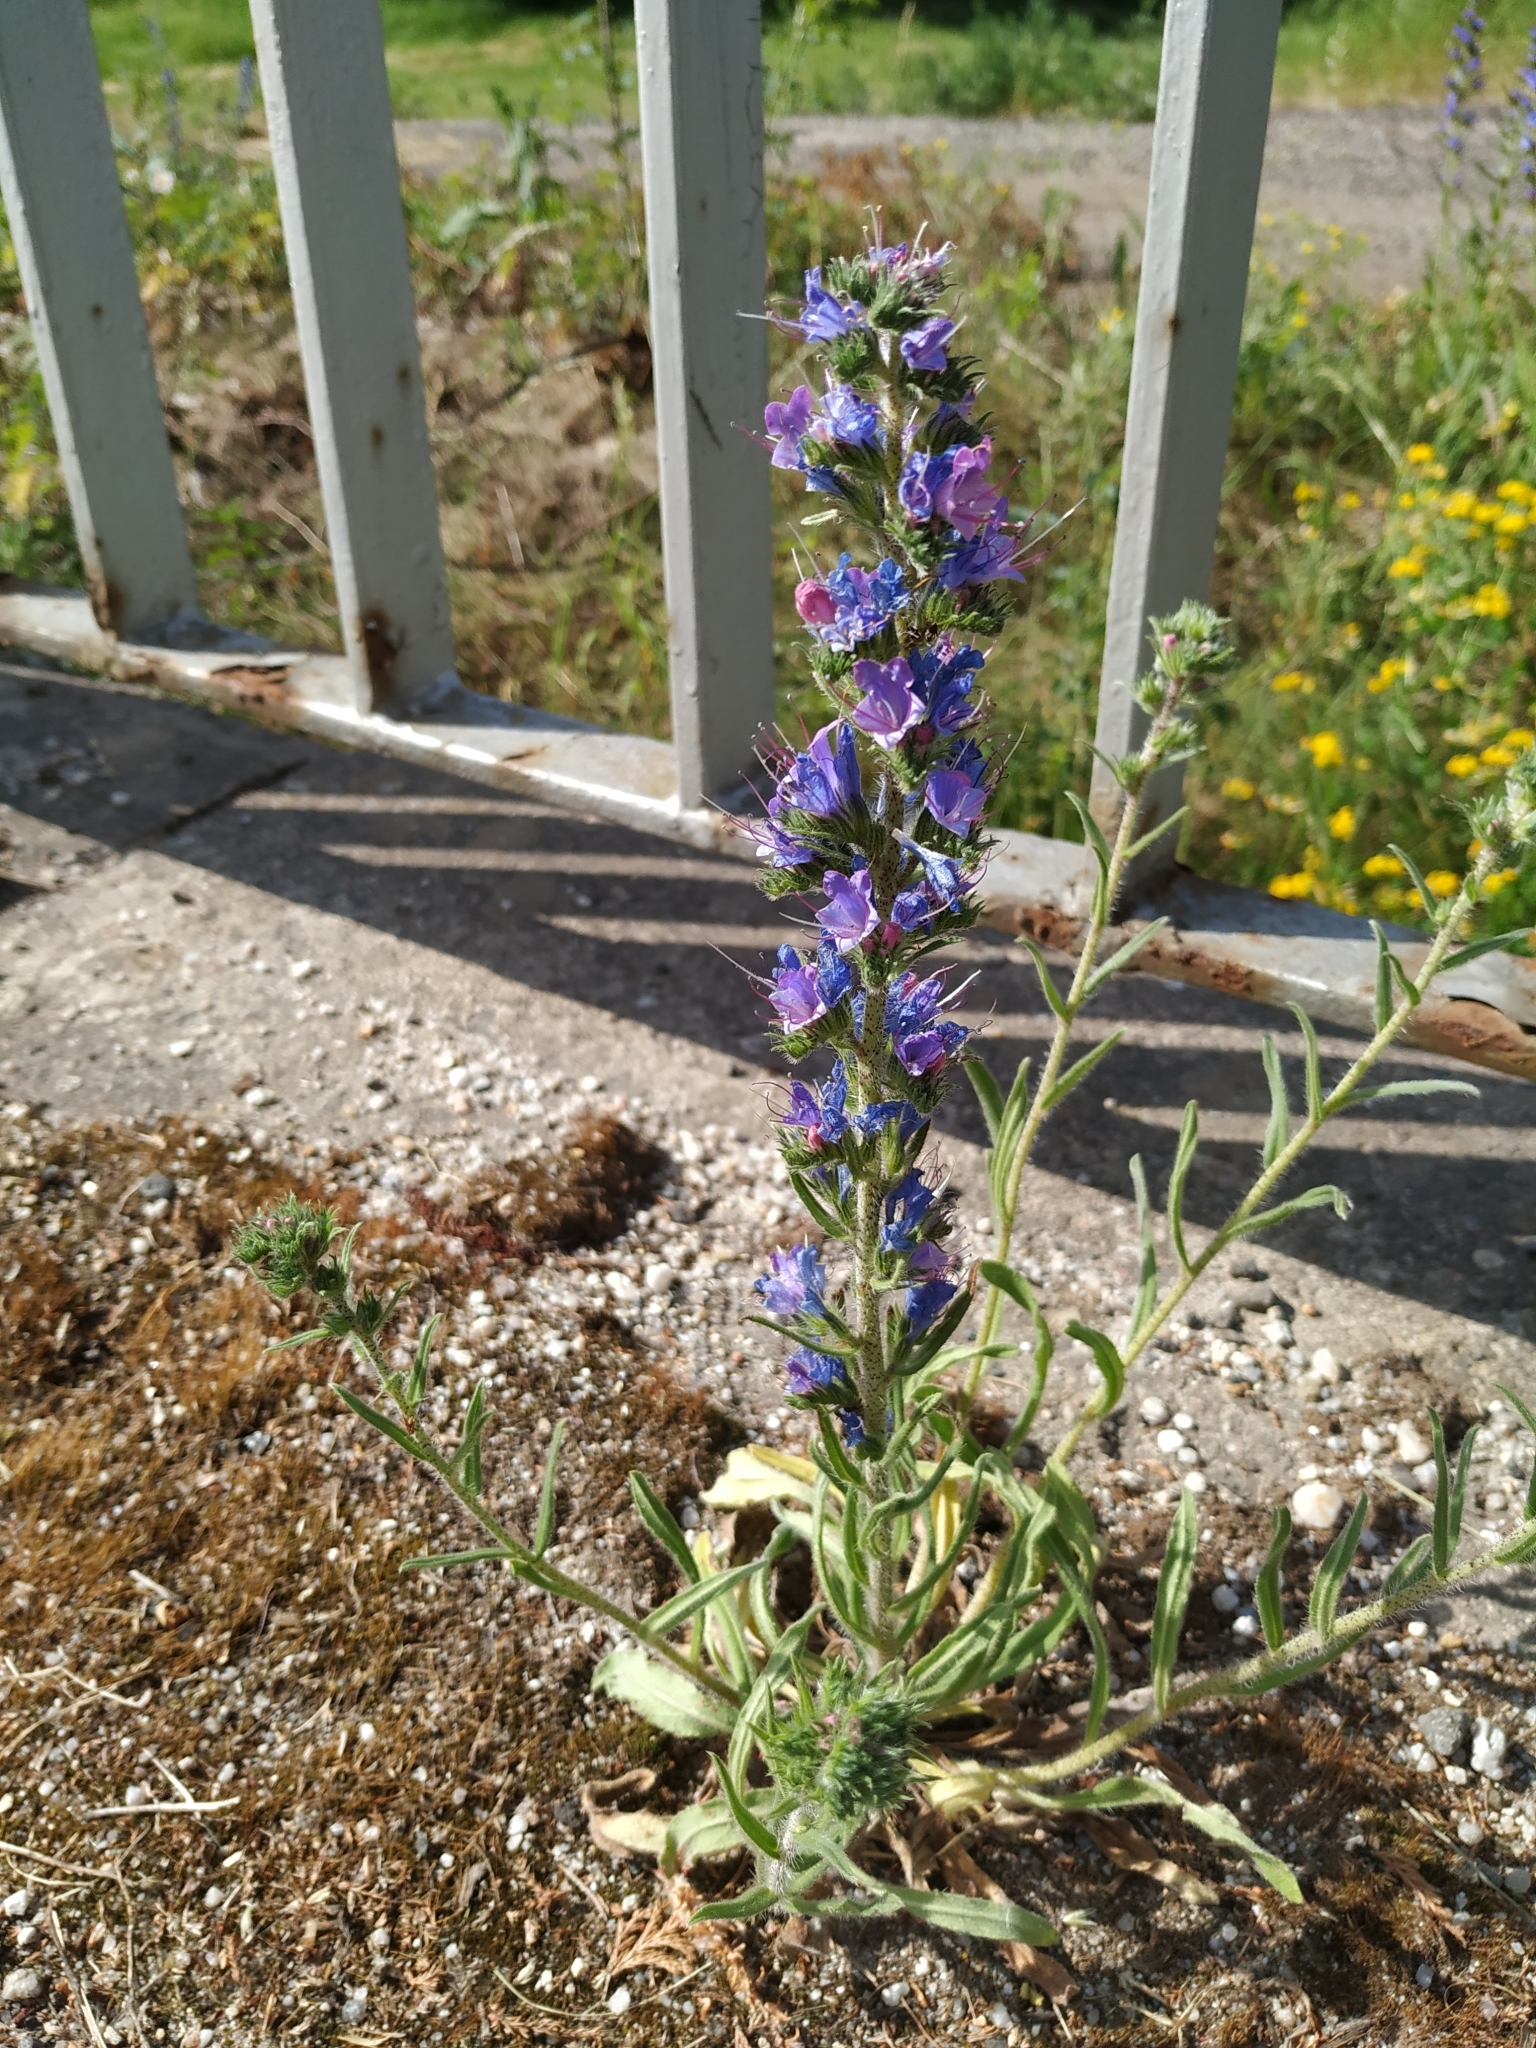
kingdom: Plantae
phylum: Tracheophyta
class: Magnoliopsida
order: Boraginales
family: Boraginaceae
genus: Echium
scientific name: Echium vulgare
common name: Common viper's bugloss
